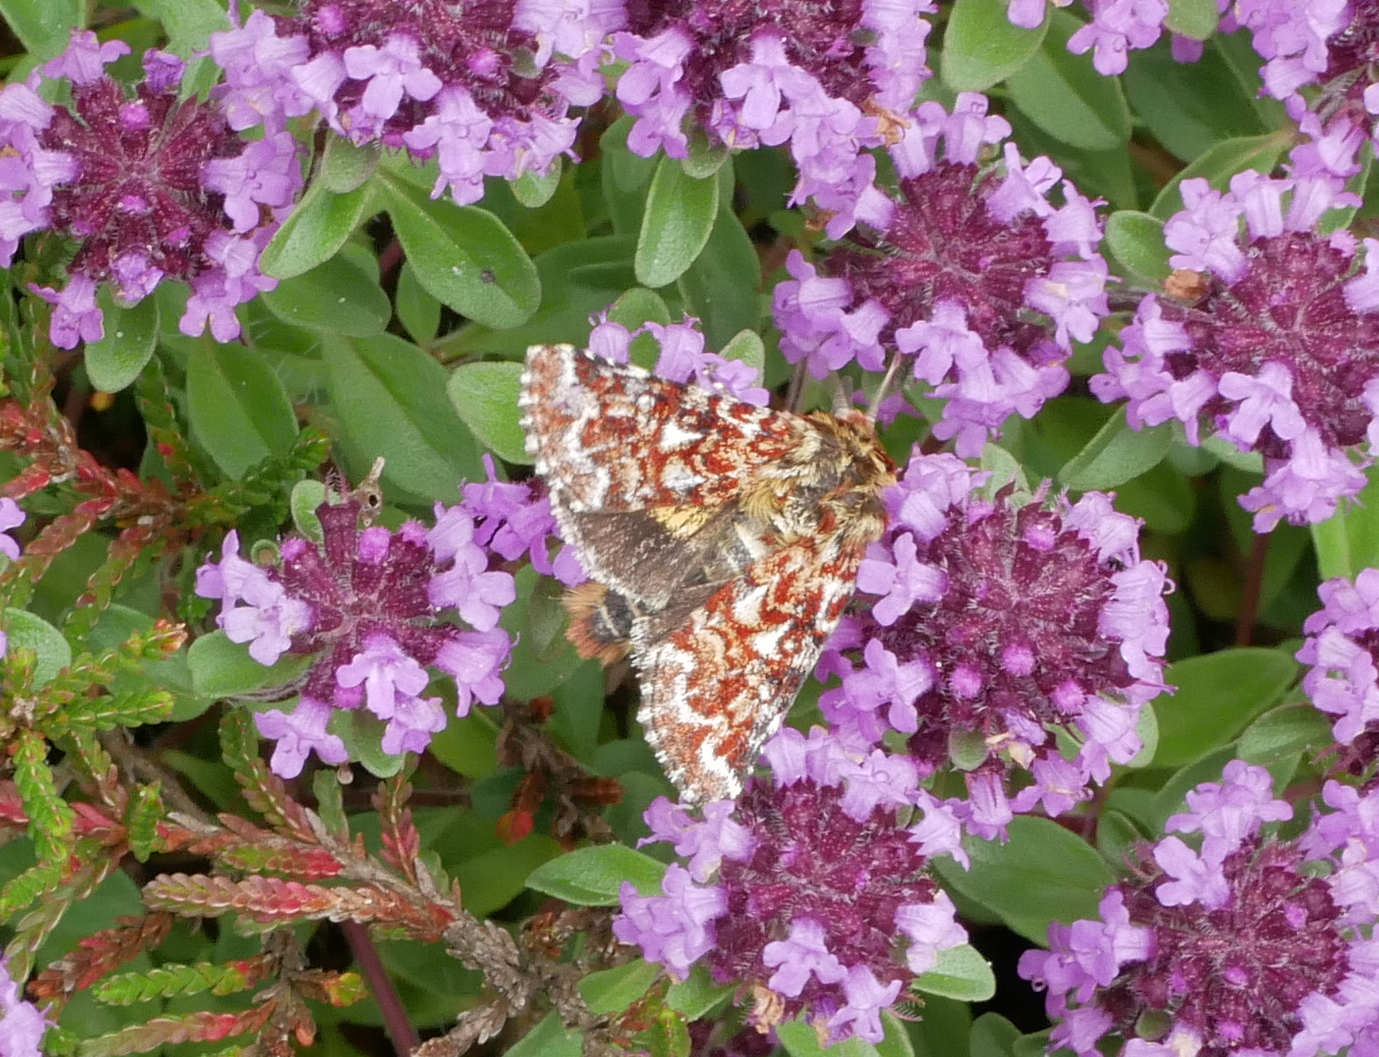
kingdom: Animalia
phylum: Arthropoda
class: Insecta
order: Lepidoptera
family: Noctuidae
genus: Anarta
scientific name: Anarta myrtilli
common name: Beautiful yellow underwing
